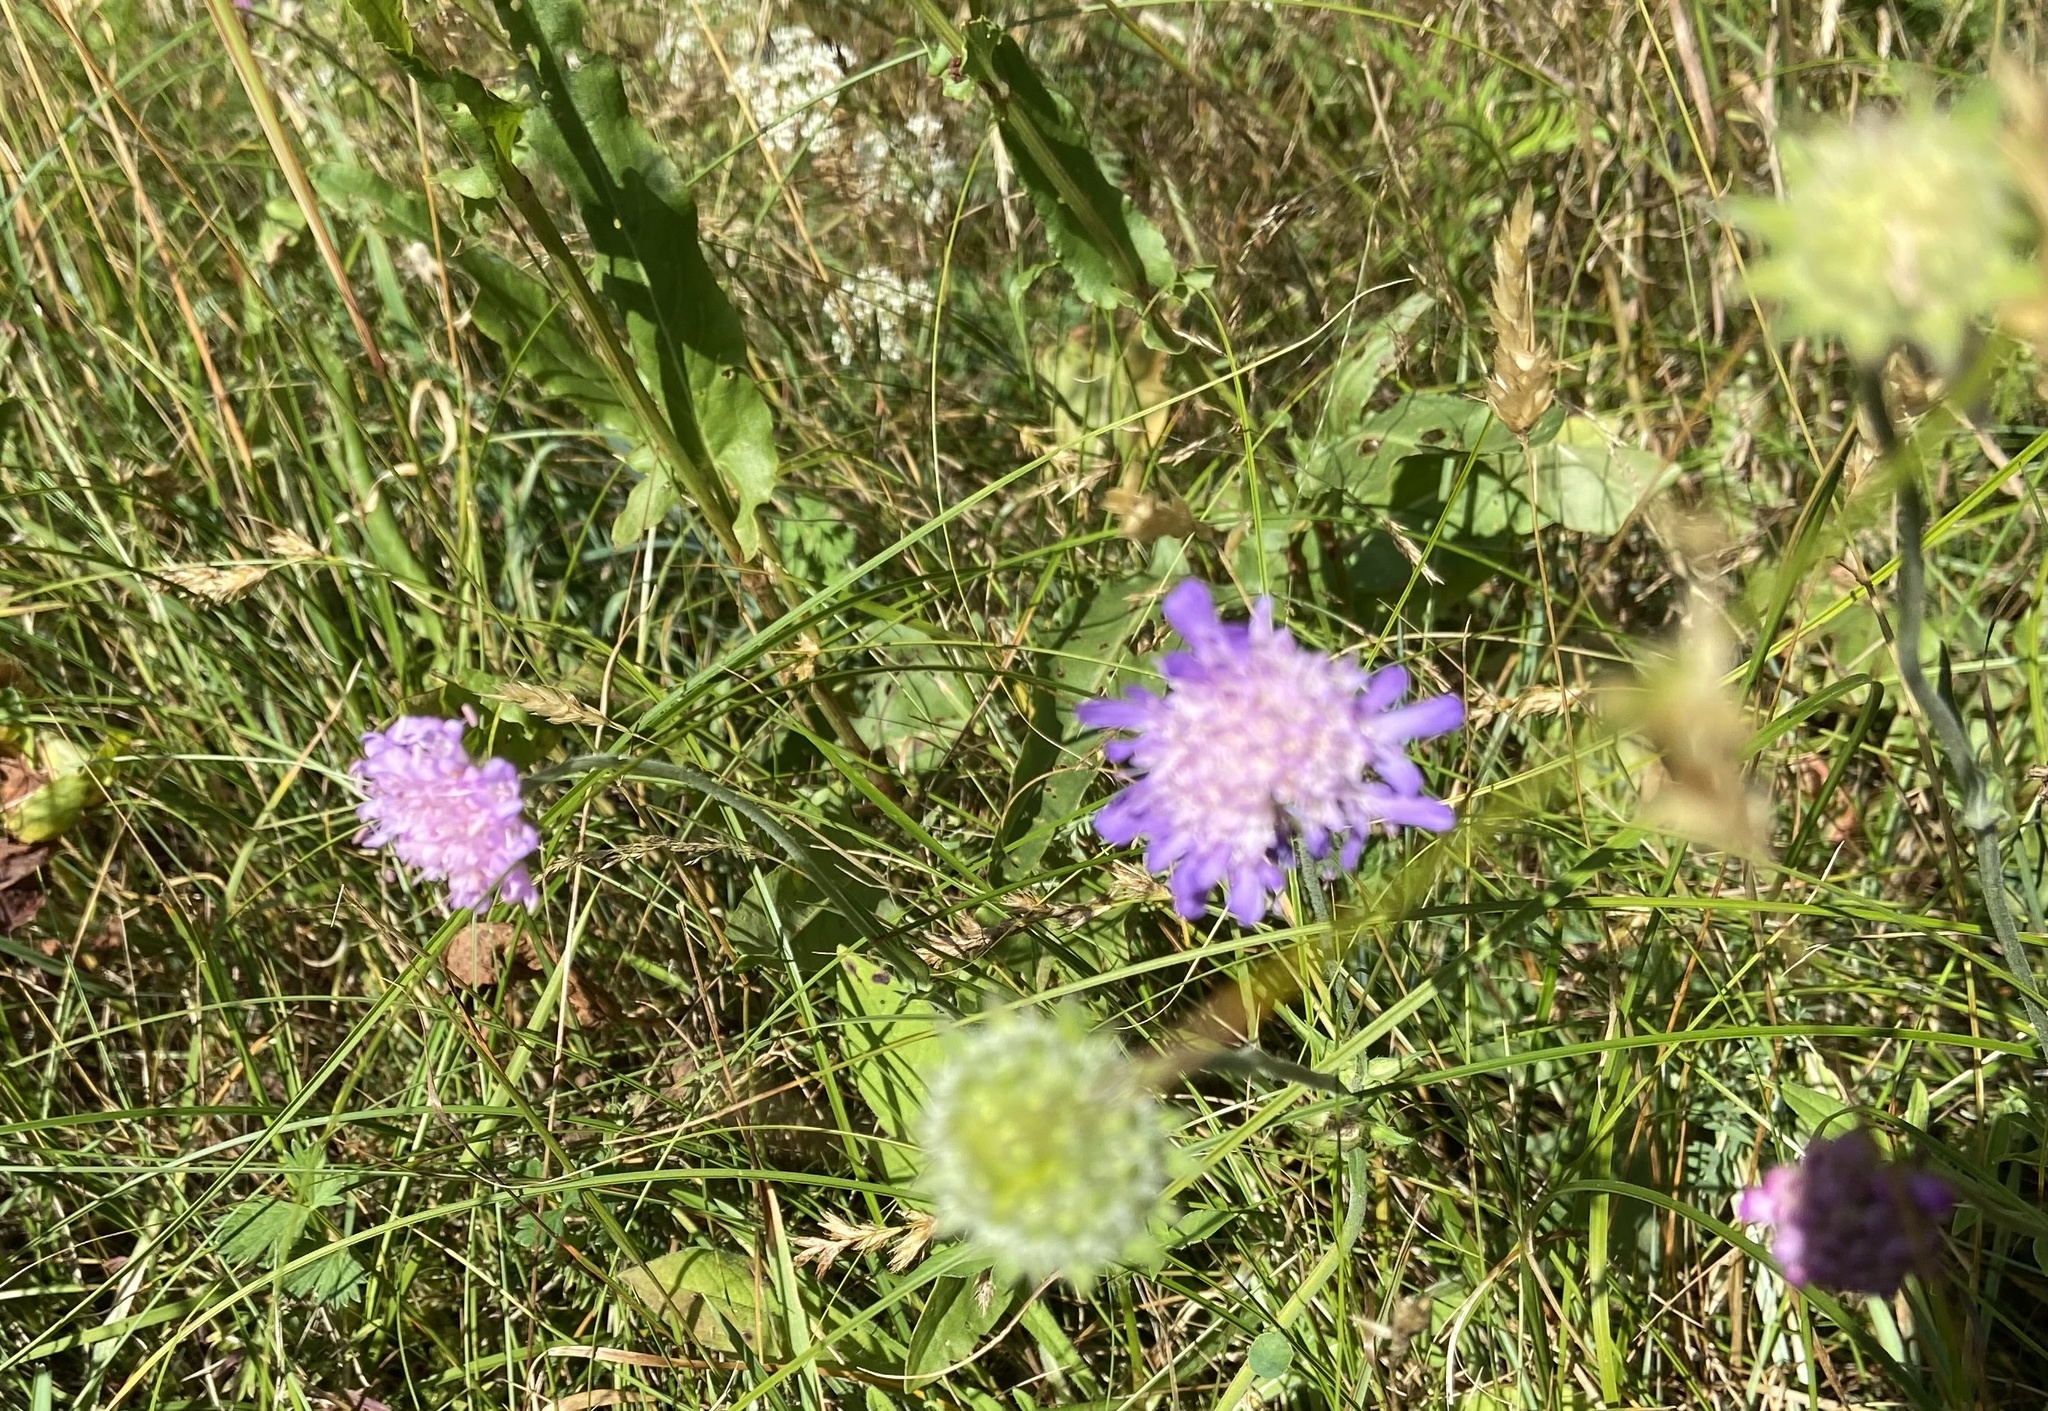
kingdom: Plantae
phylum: Tracheophyta
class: Magnoliopsida
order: Dipsacales
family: Caprifoliaceae
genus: Knautia
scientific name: Knautia arvensis
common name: Field scabiosa
